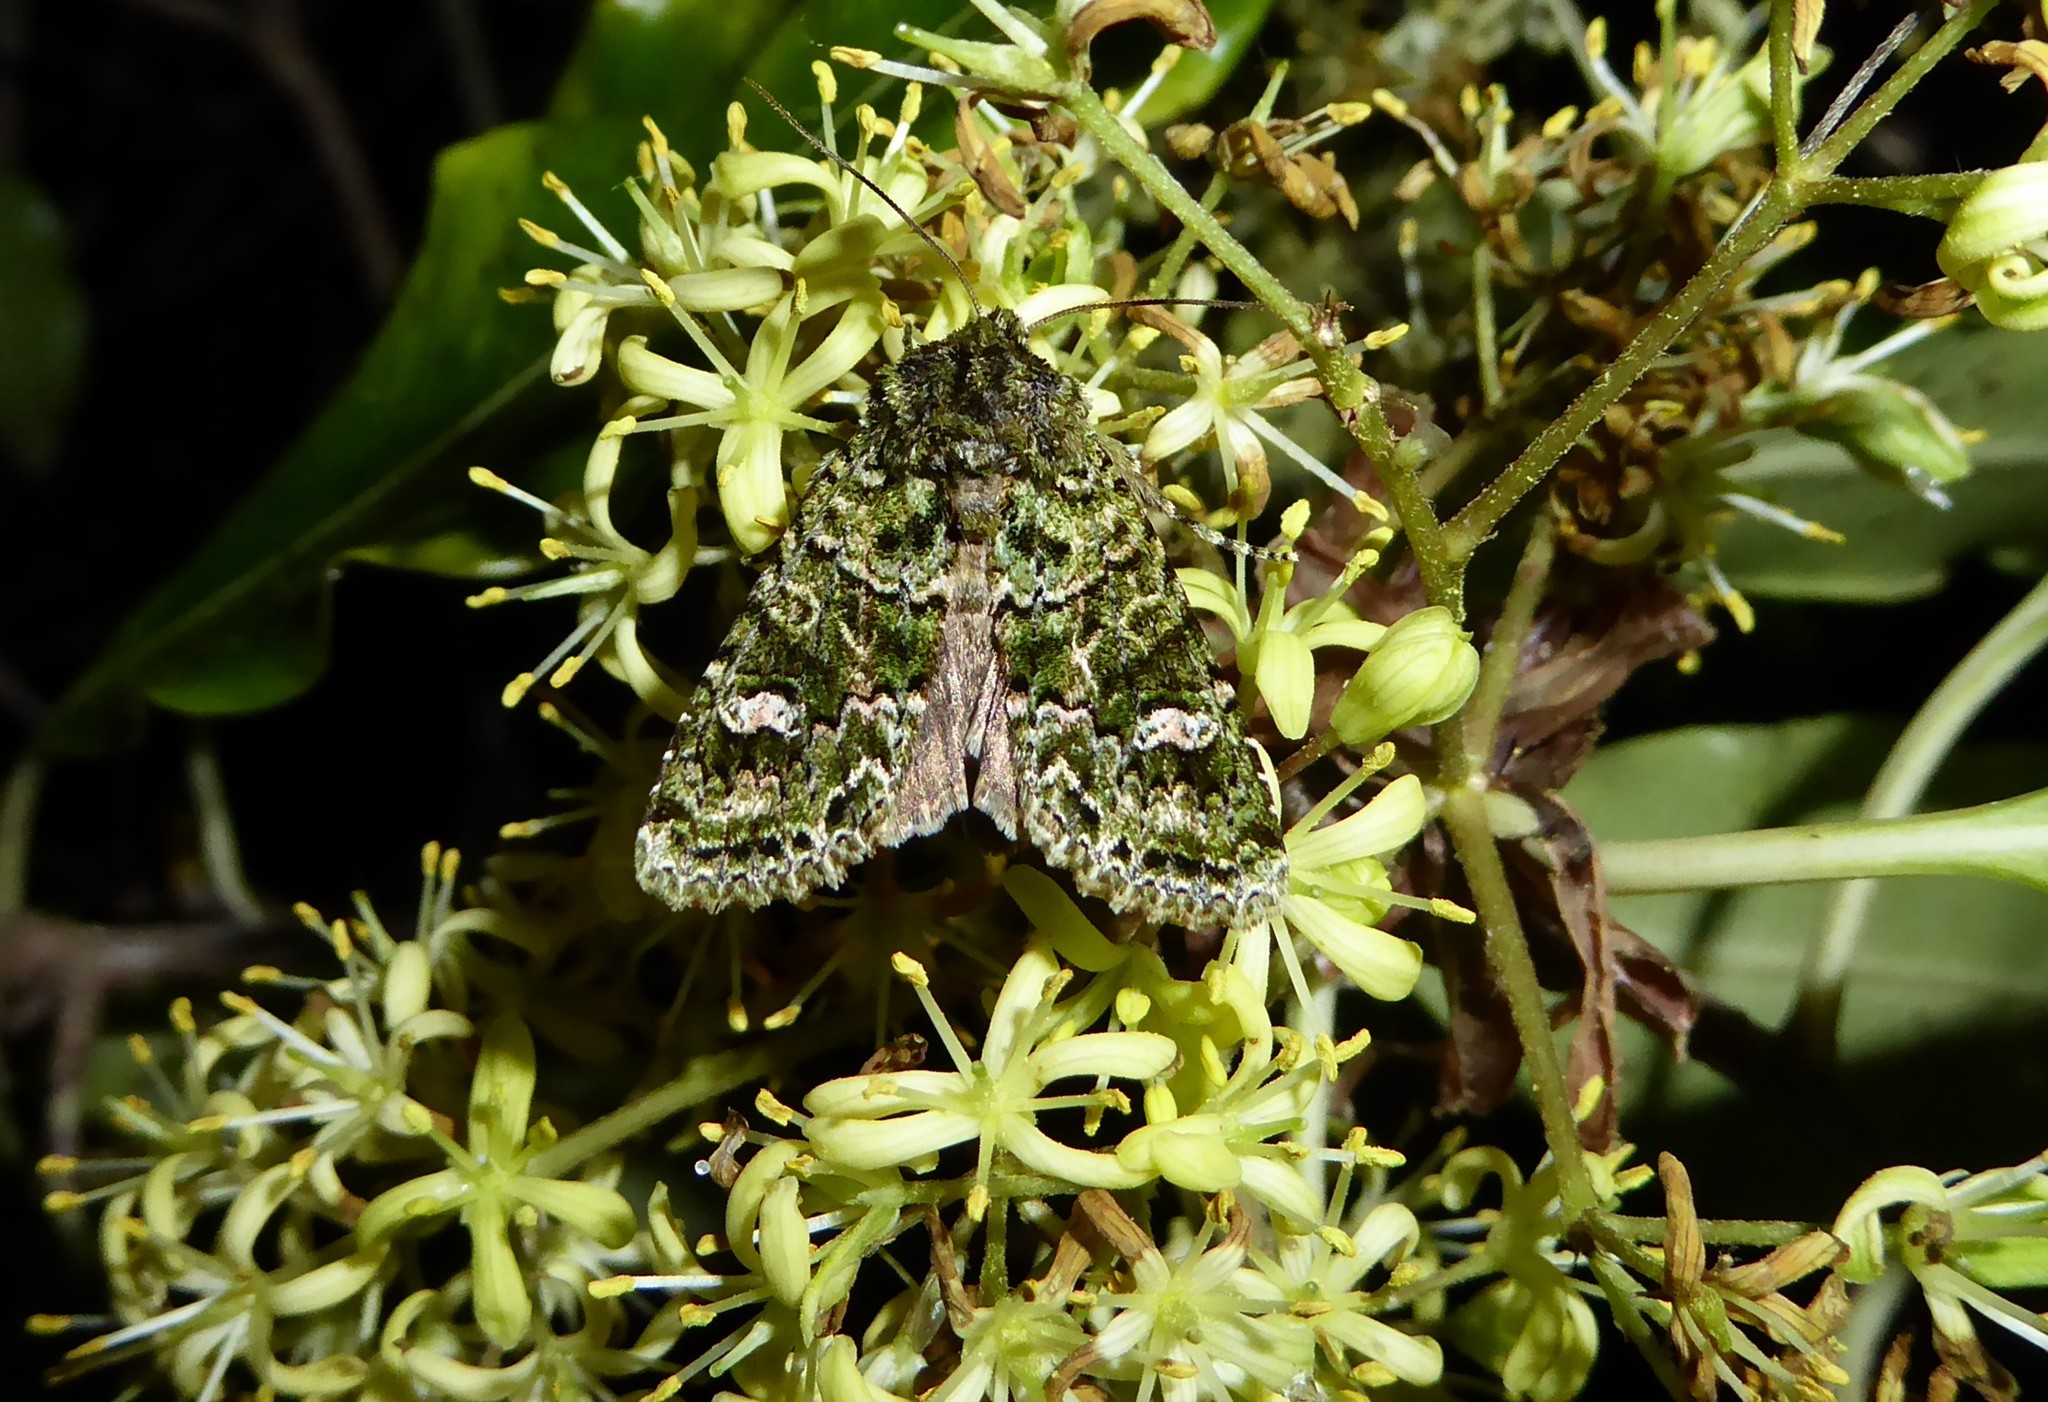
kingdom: Animalia
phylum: Arthropoda
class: Insecta
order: Lepidoptera
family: Noctuidae
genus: Ichneutica
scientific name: Ichneutica
